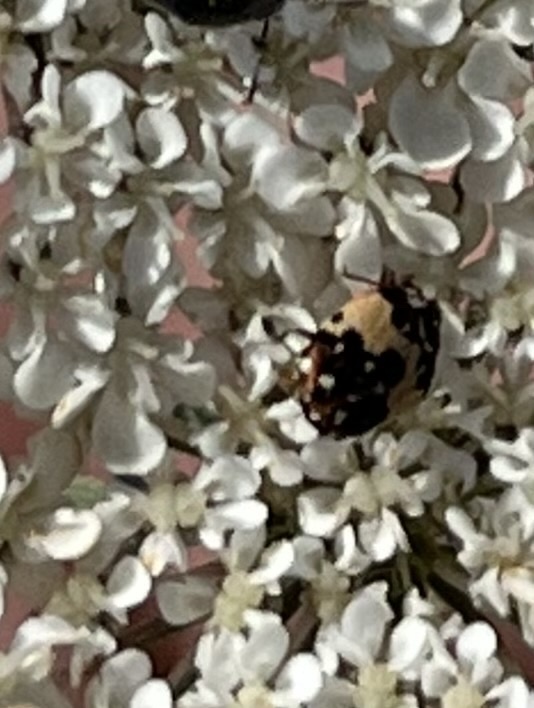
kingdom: Animalia
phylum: Arthropoda
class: Insecta
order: Coleoptera
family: Dermestidae
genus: Anthrenus
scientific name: Anthrenus isabellinus
